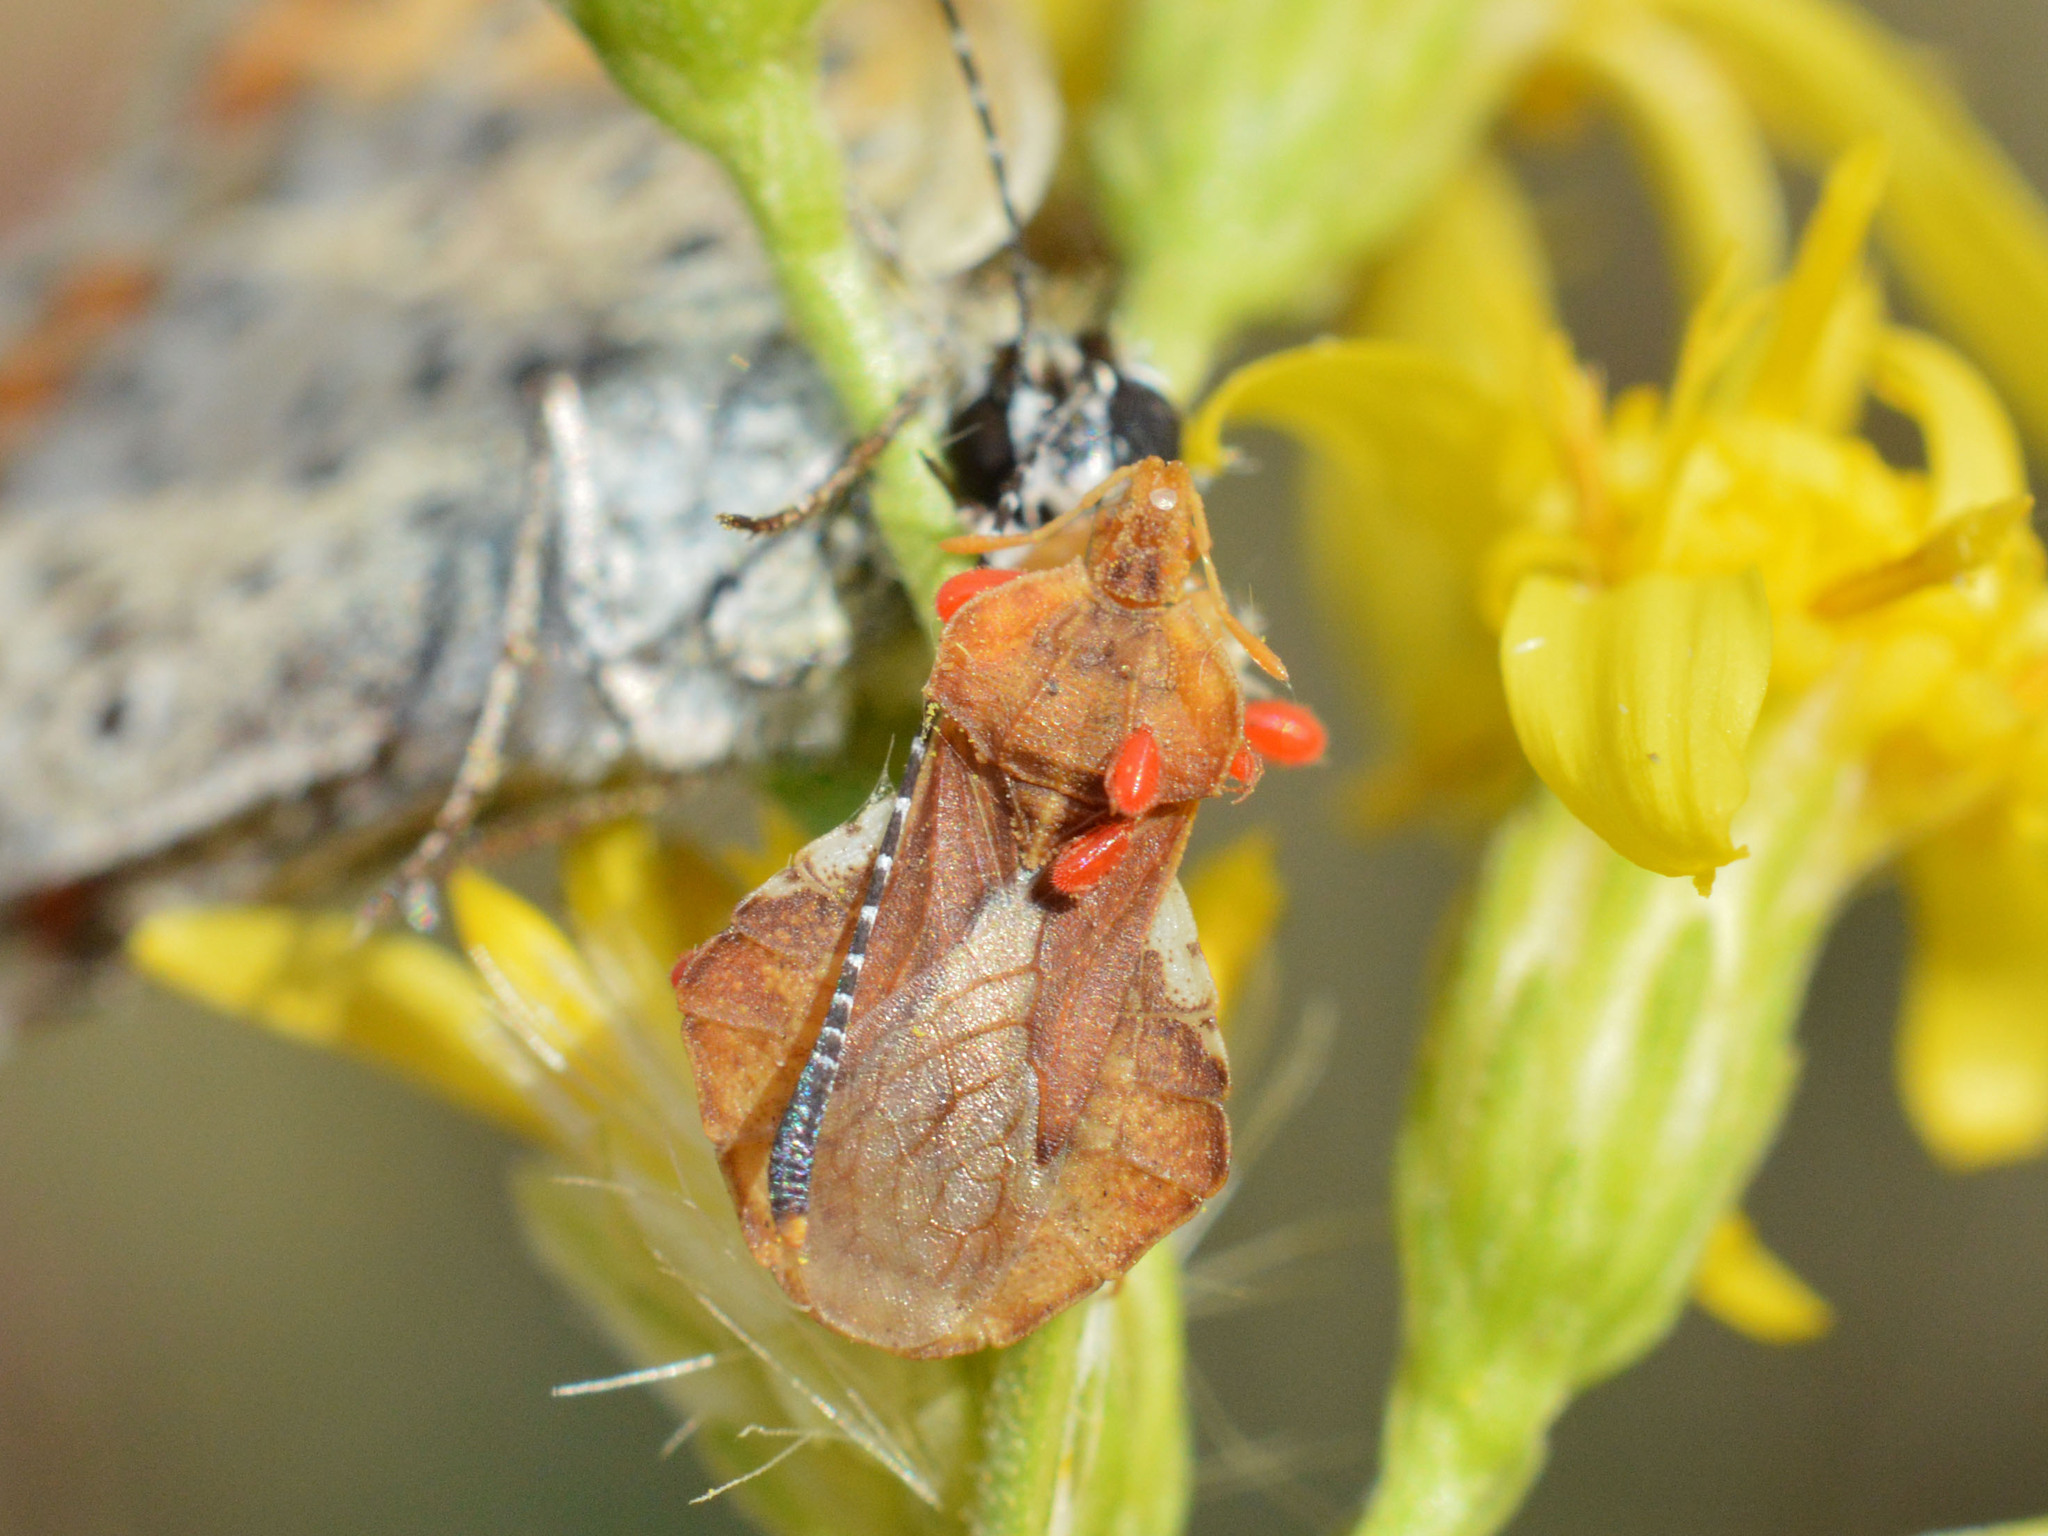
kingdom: Animalia
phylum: Arthropoda
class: Insecta
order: Hemiptera
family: Reduviidae
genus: Phymata
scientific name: Phymata crassipes
